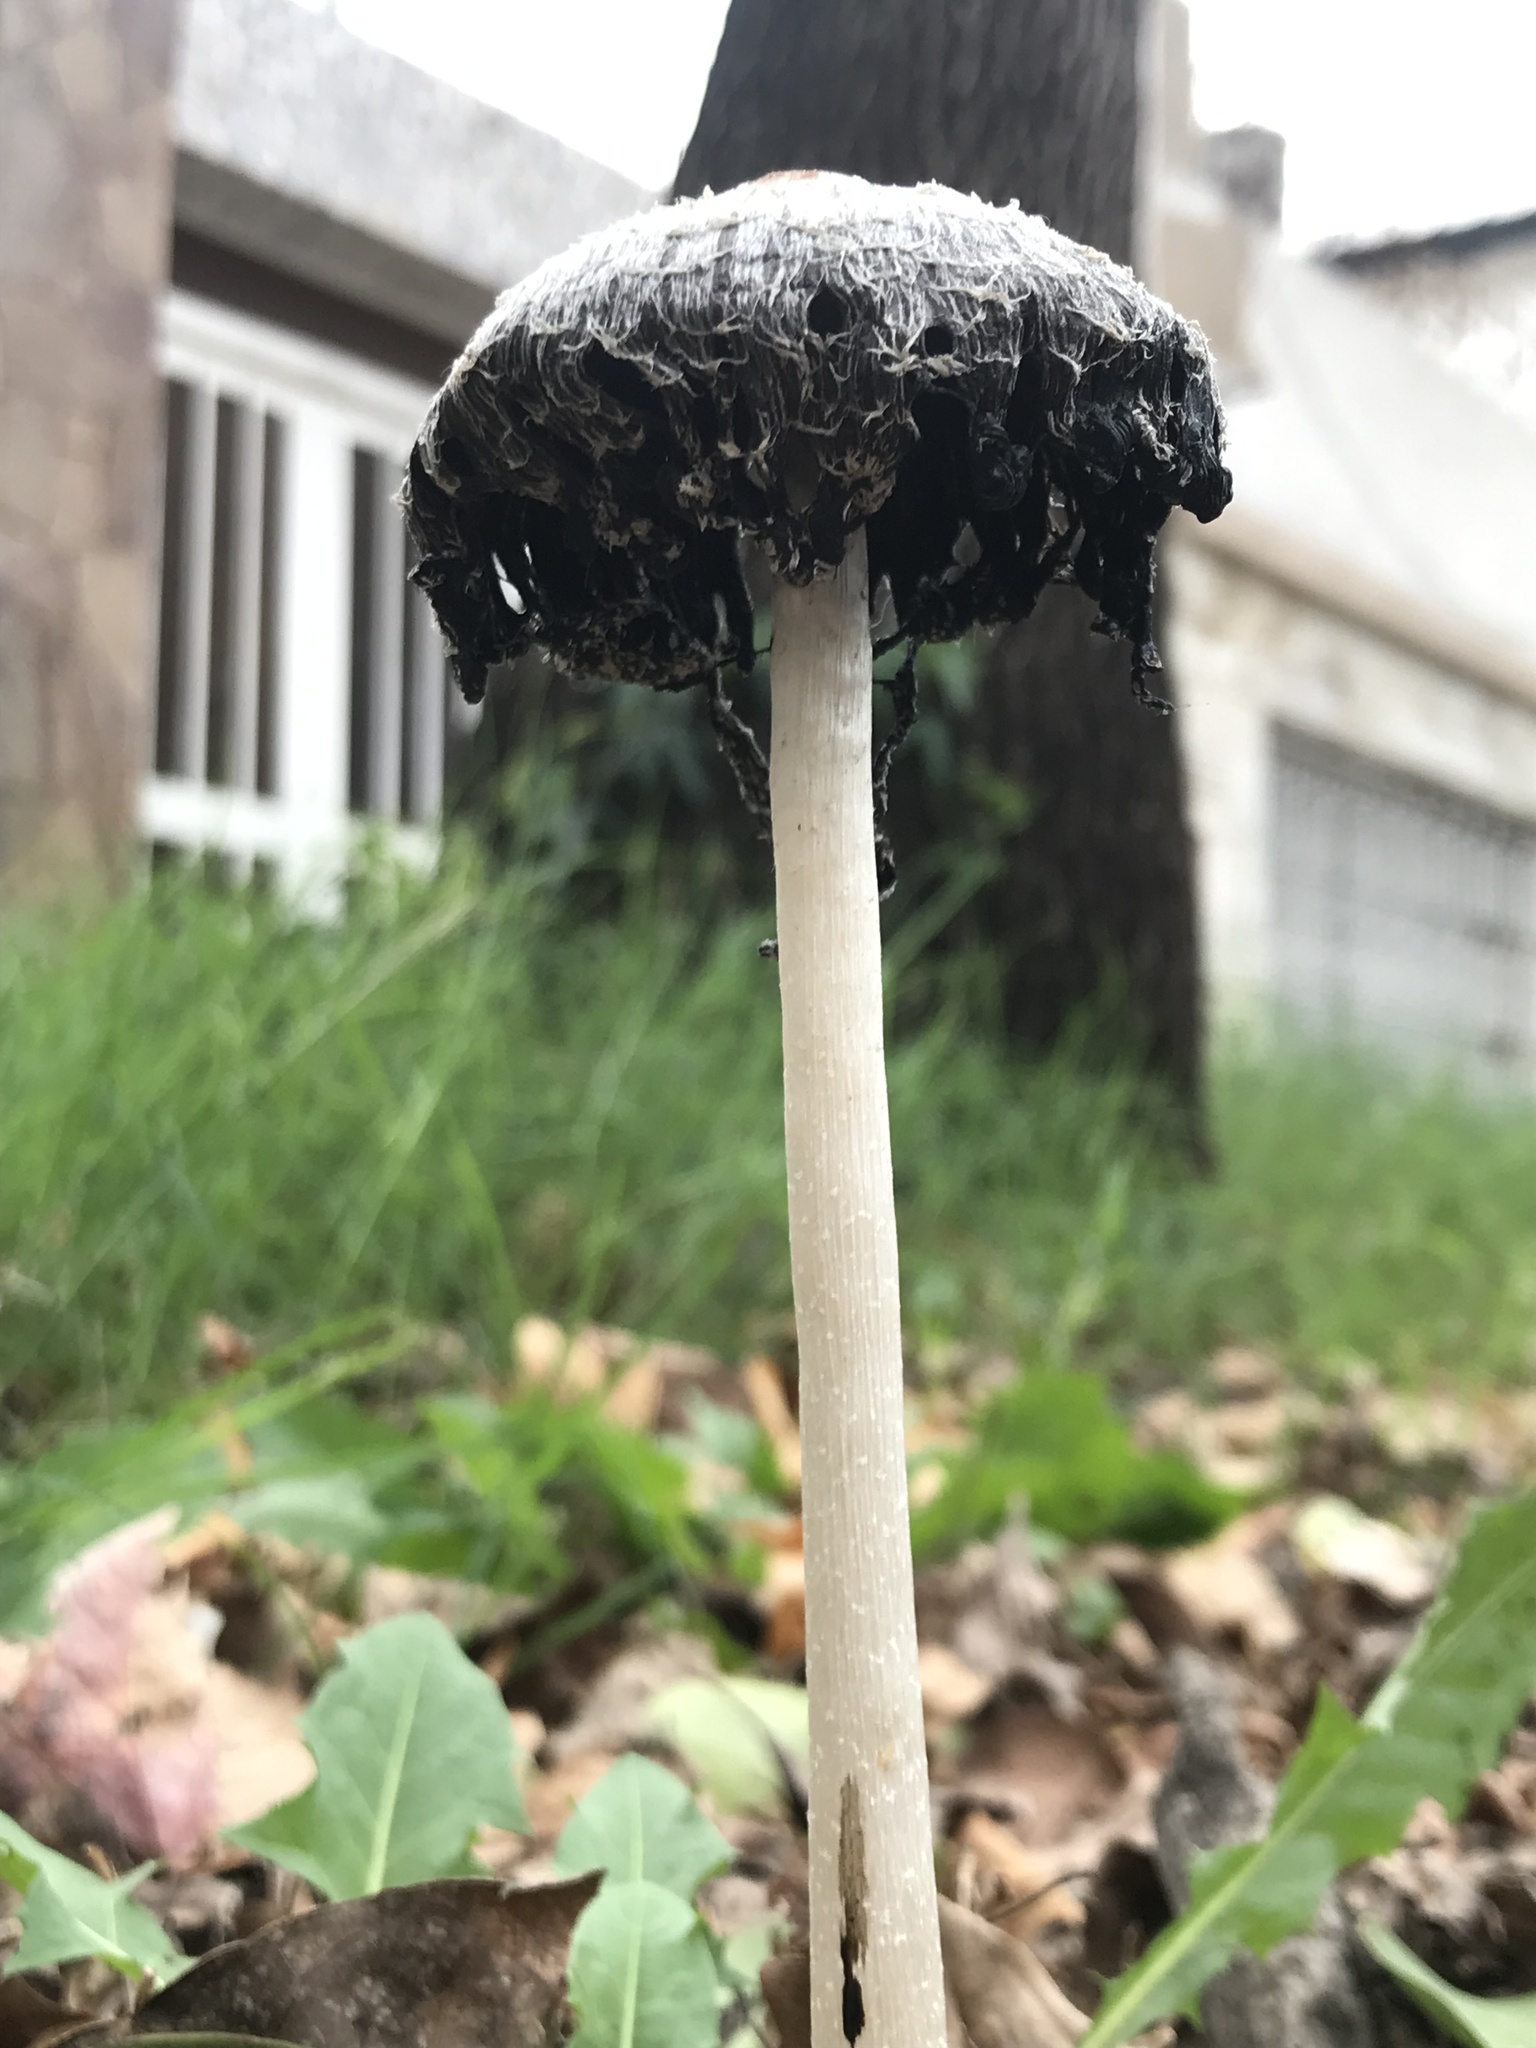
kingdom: Fungi
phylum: Basidiomycota
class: Agaricomycetes
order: Agaricales
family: Agaricaceae
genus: Coprinus
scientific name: Coprinus comatus
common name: Lawyer's wig
